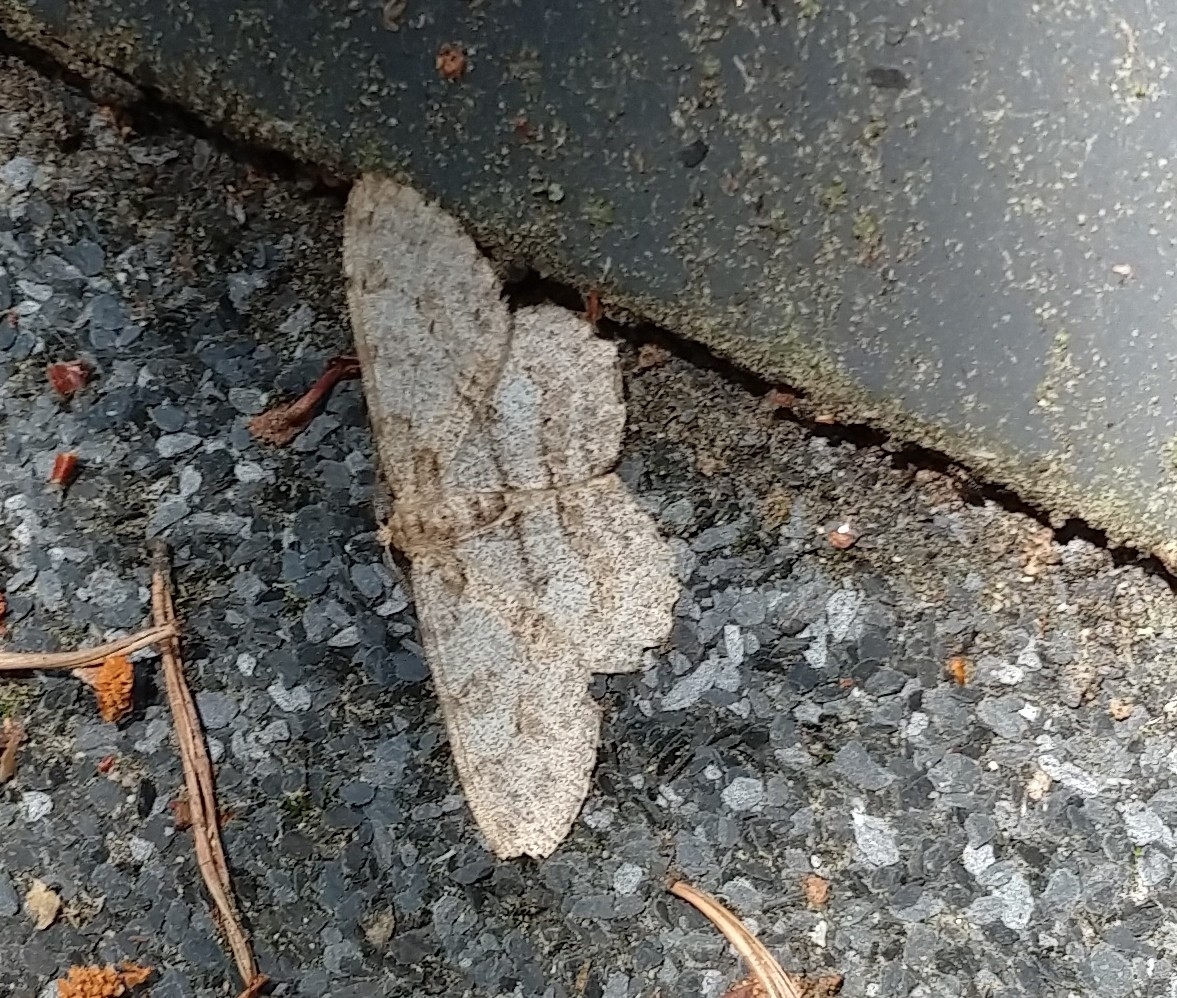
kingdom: Animalia
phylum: Arthropoda
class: Insecta
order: Lepidoptera
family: Geometridae
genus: Hypomecis
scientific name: Hypomecis punctinalis
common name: Pale oak beauty
